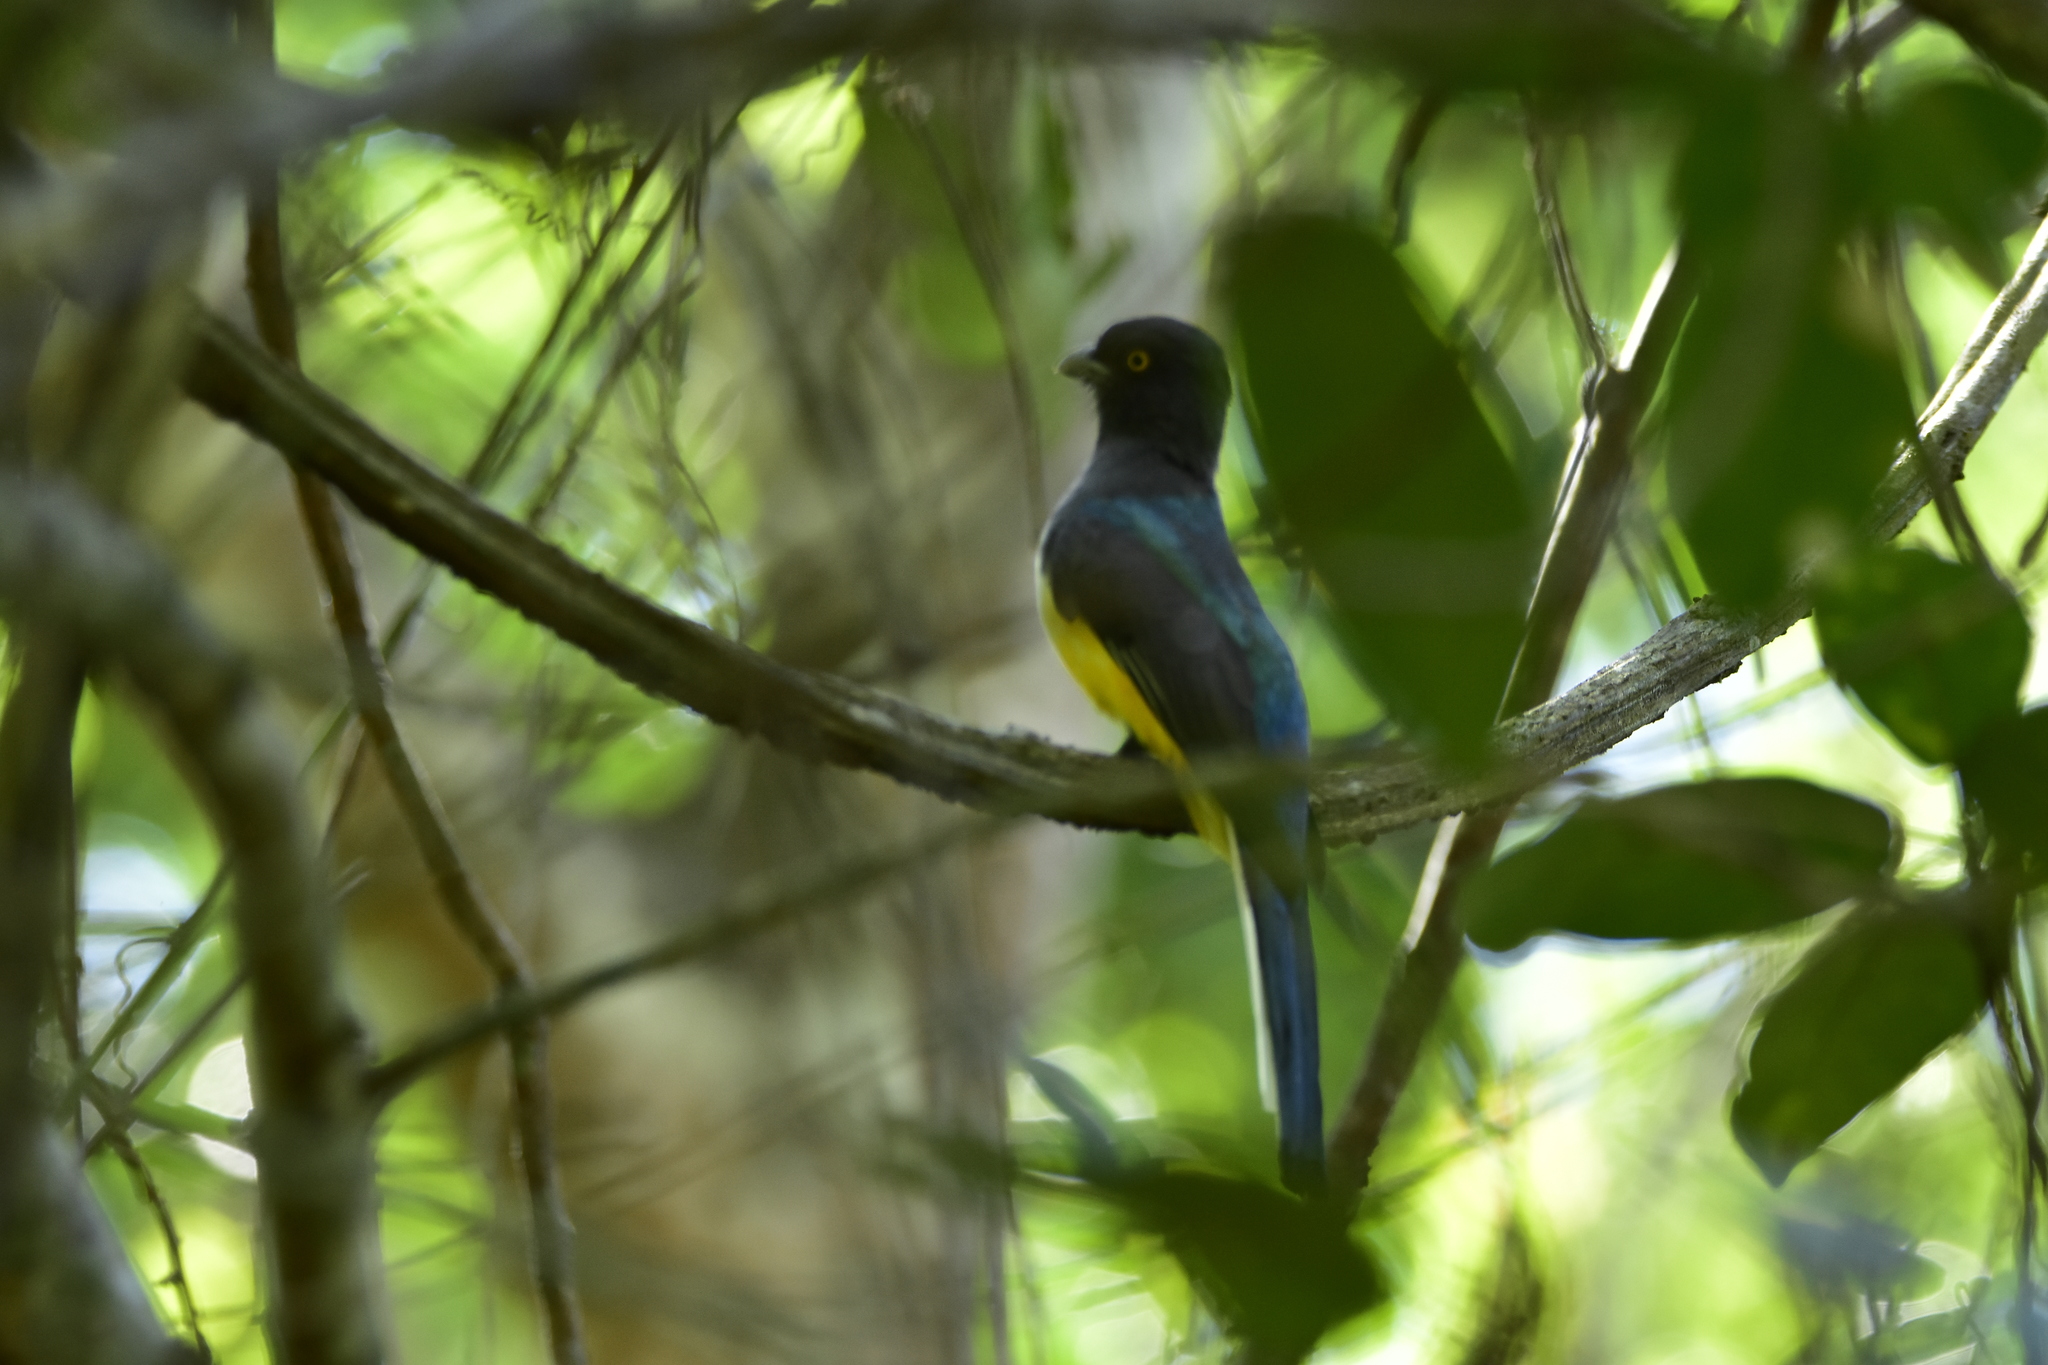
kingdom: Animalia
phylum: Chordata
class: Aves
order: Trogoniformes
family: Trogonidae
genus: Trogon
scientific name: Trogon citreolus
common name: Citreoline trogon
